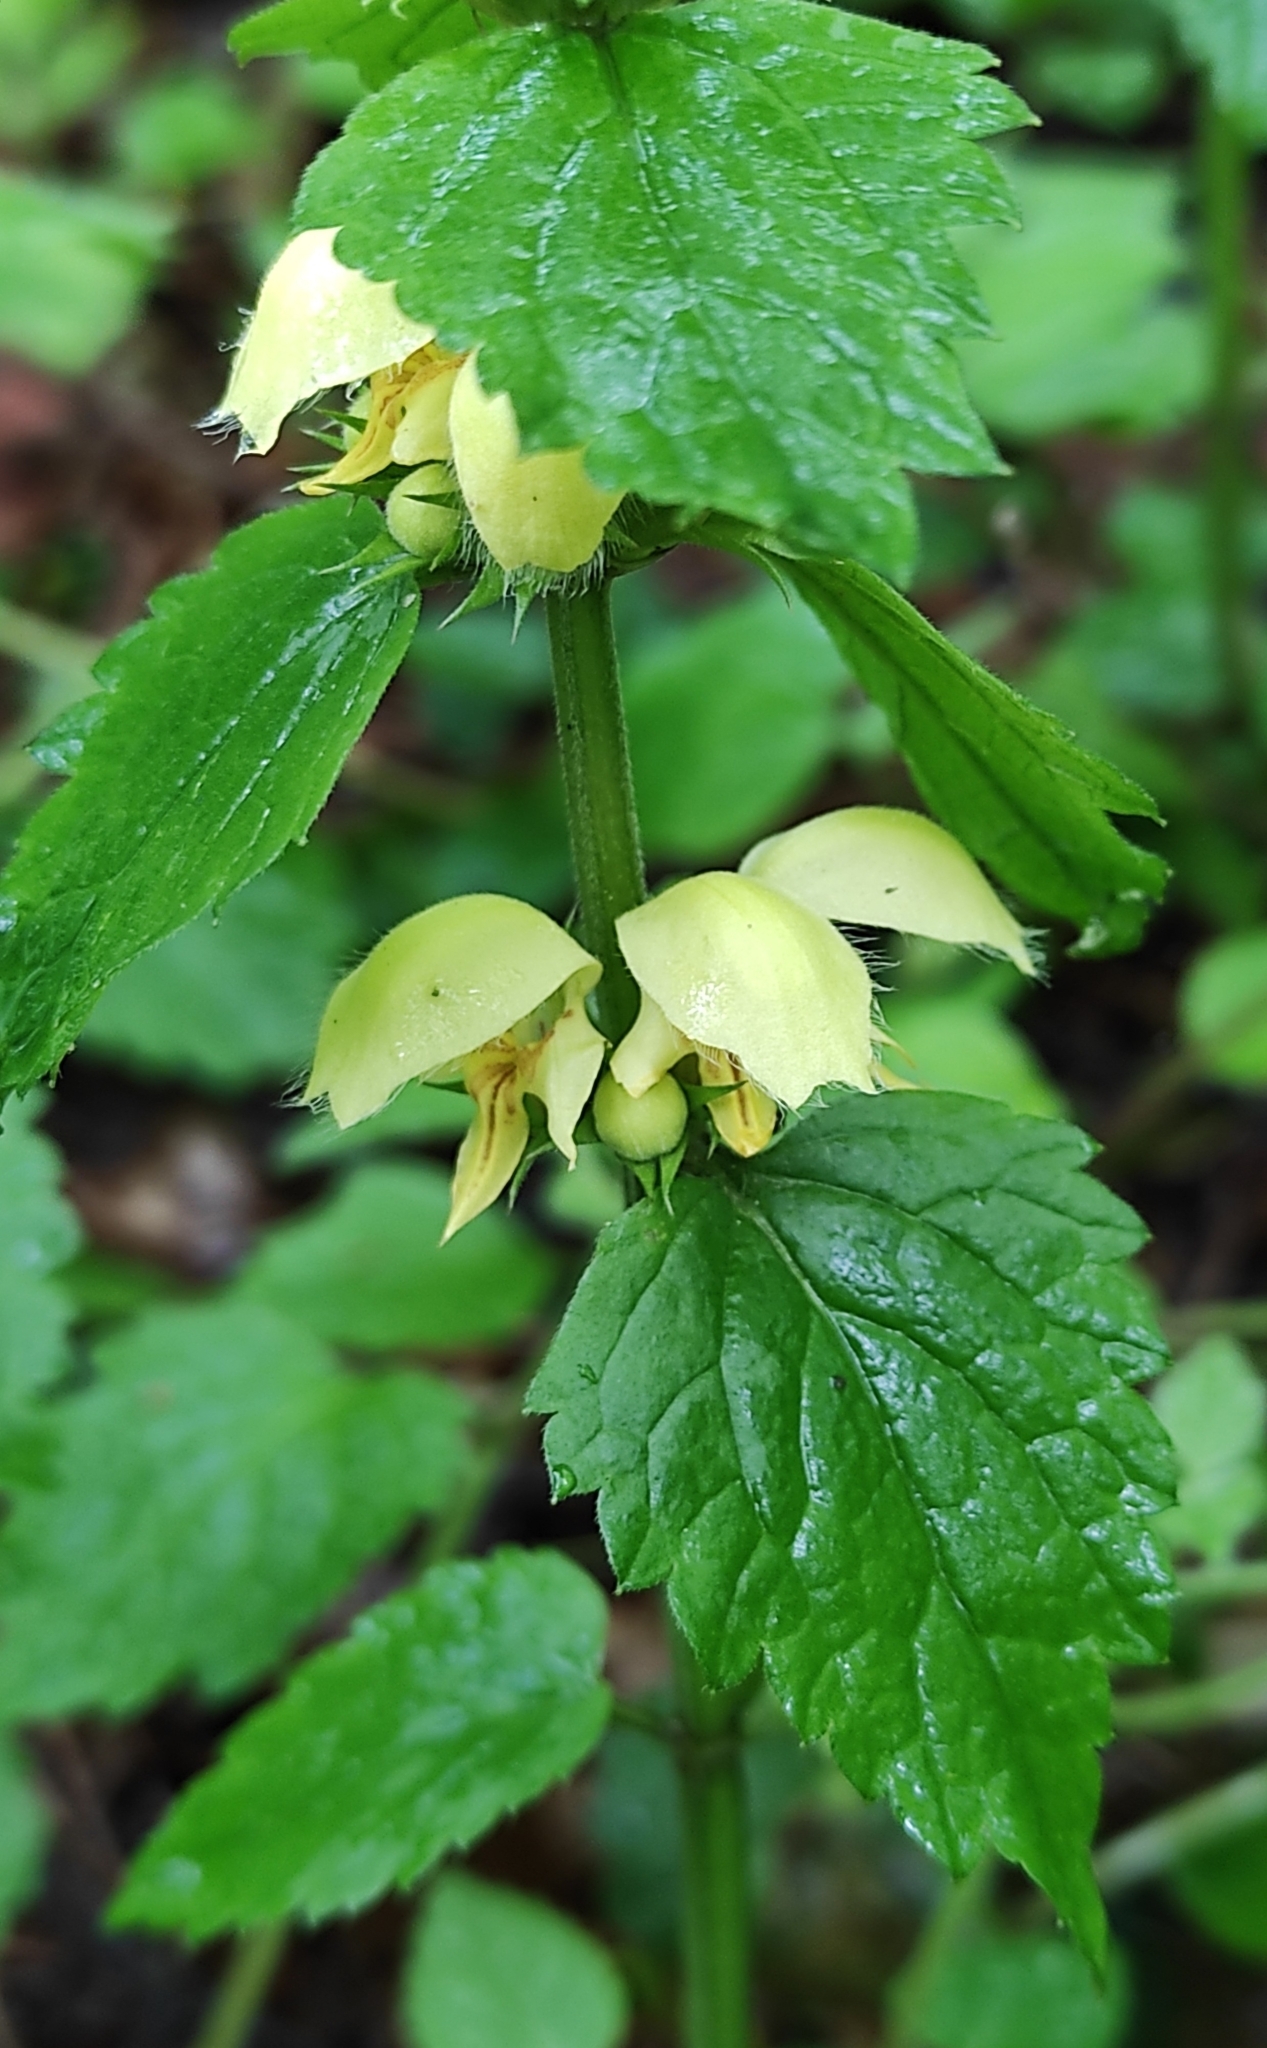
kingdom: Plantae
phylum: Tracheophyta
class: Magnoliopsida
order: Lamiales
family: Lamiaceae
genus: Lamium
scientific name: Lamium galeobdolon
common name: Yellow archangel
